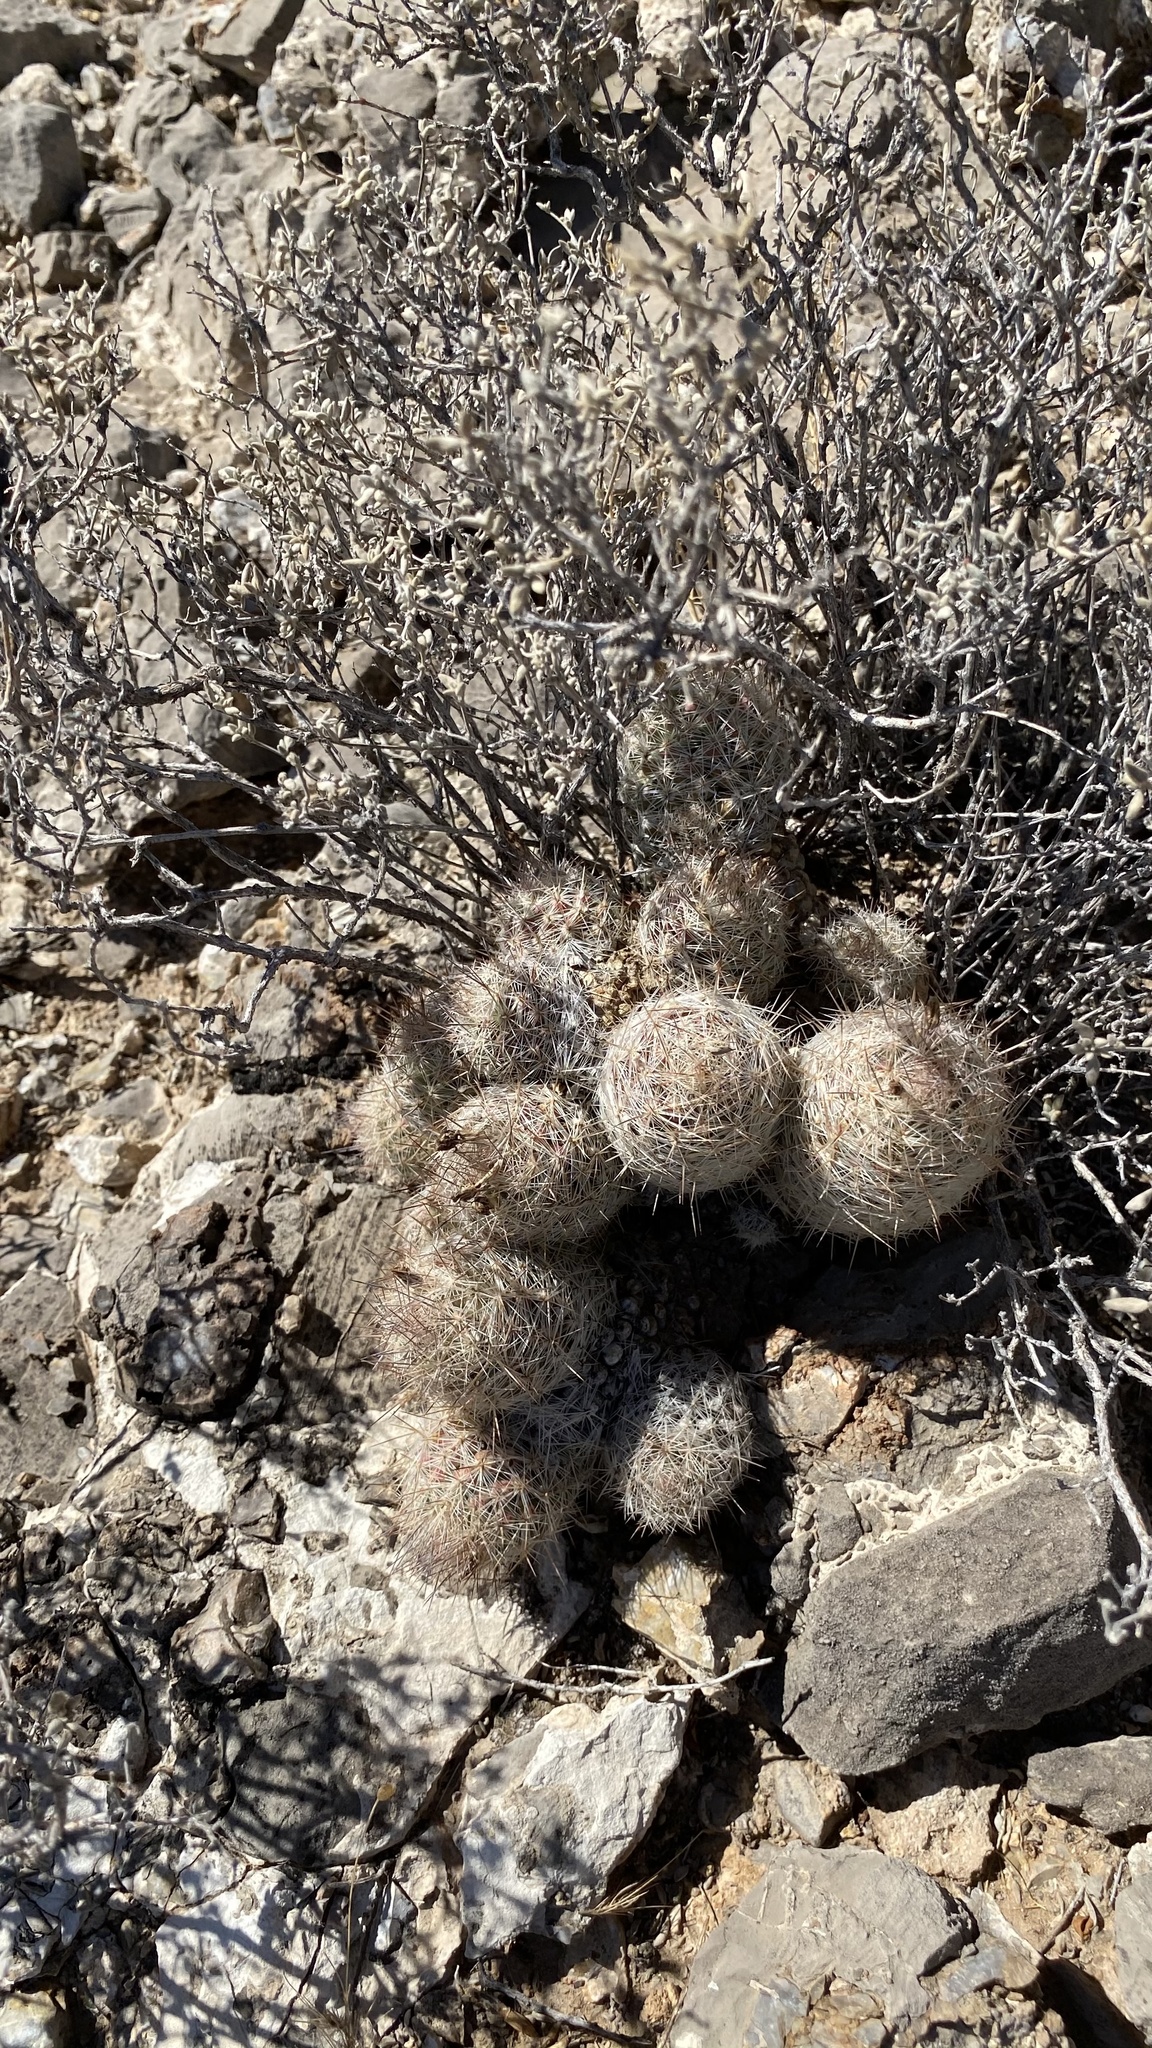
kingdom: Plantae
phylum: Tracheophyta
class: Magnoliopsida
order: Caryophyllales
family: Cactaceae
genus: Pelecyphora
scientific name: Pelecyphora tuberculosa
